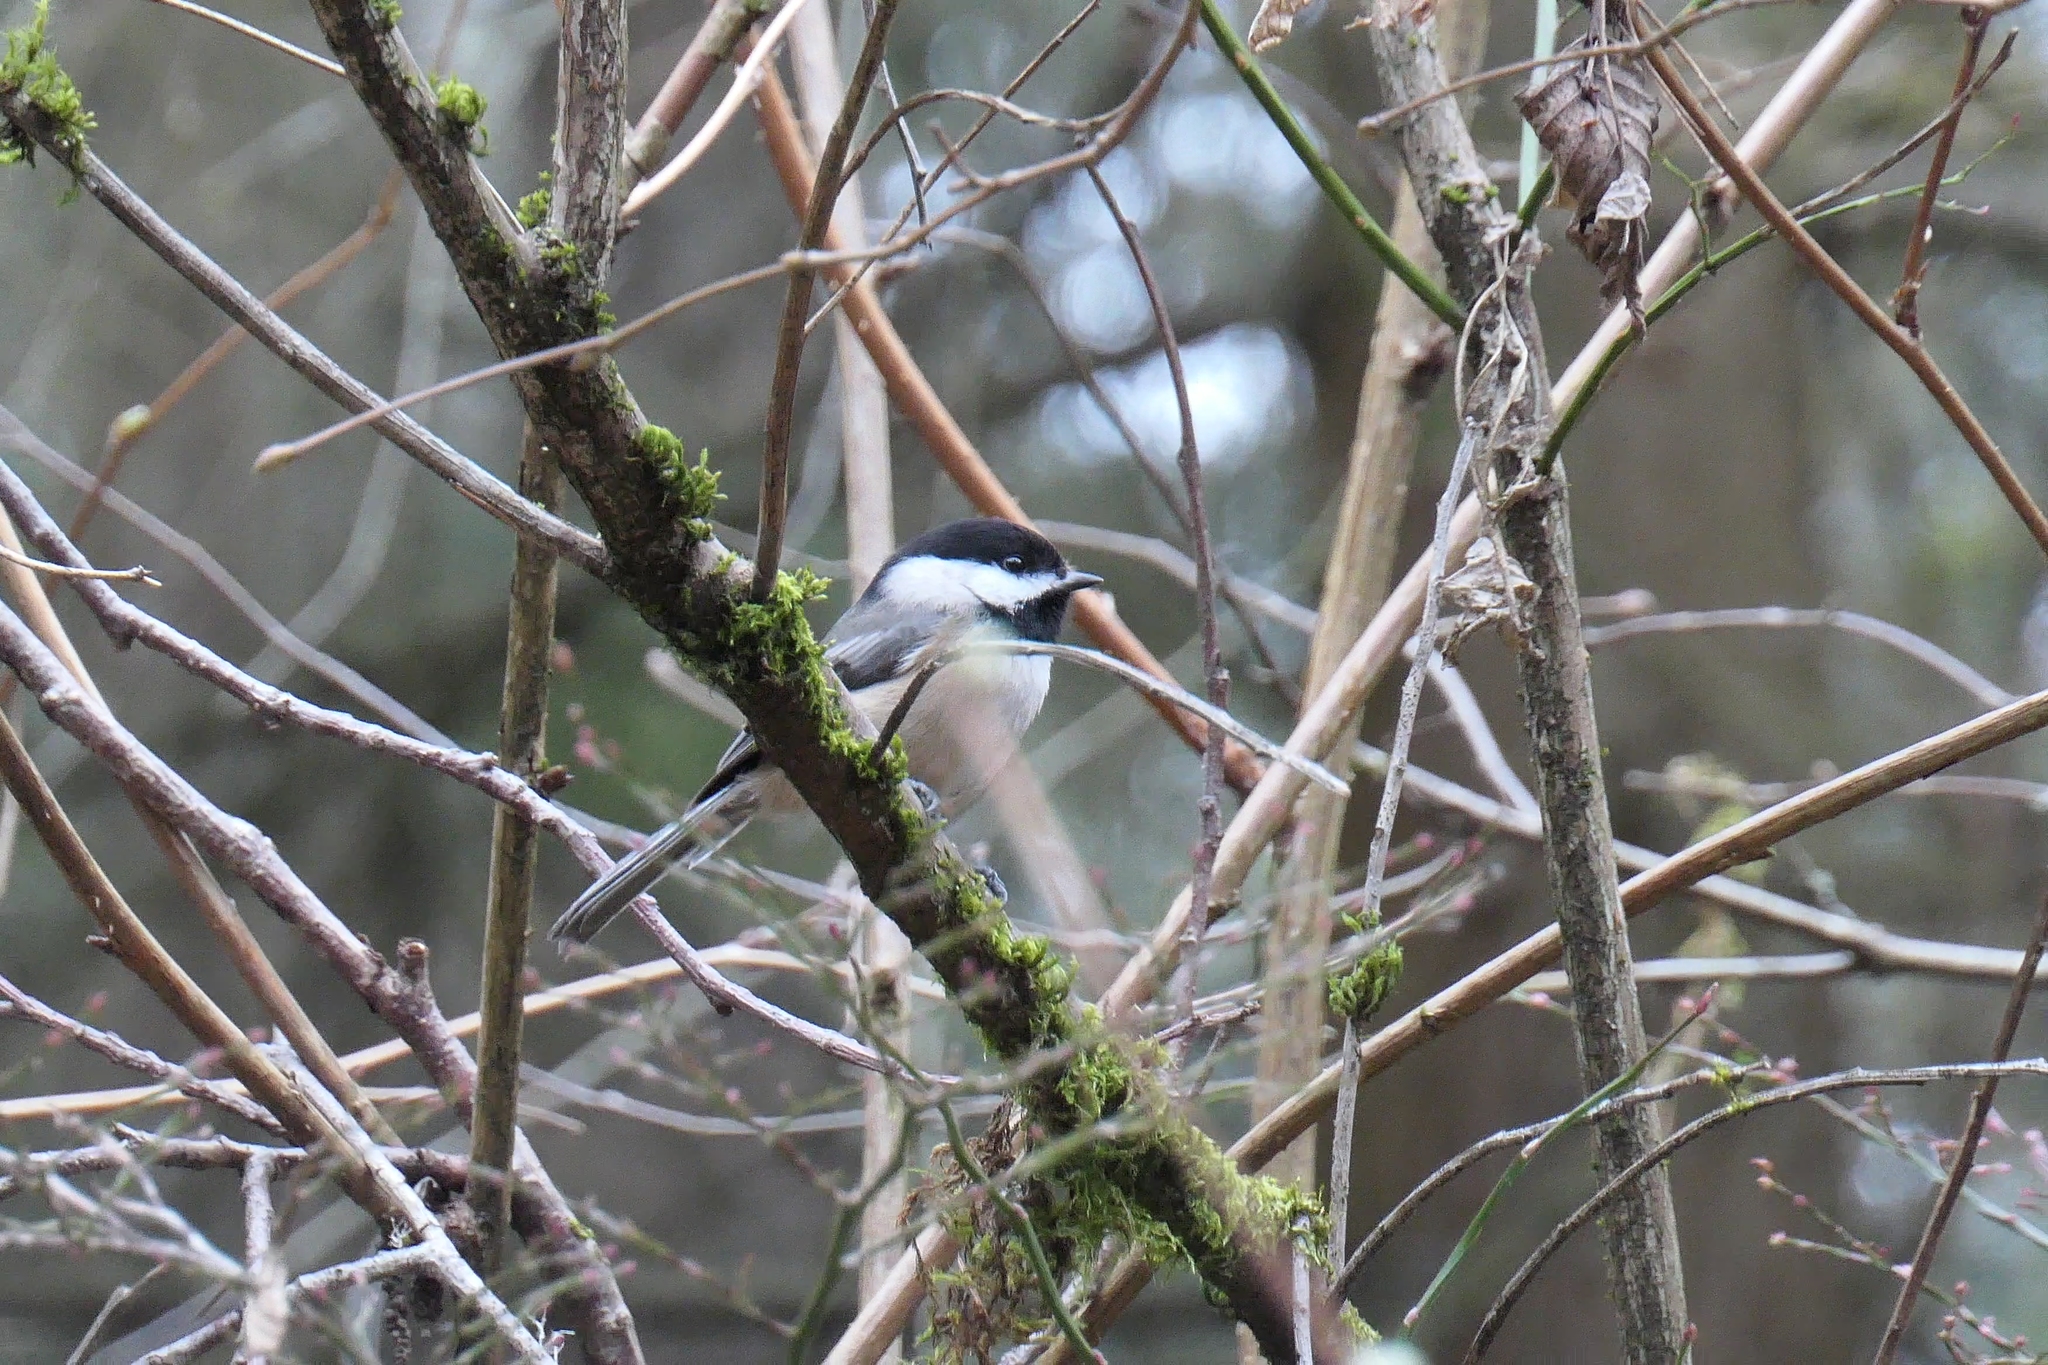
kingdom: Animalia
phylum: Chordata
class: Aves
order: Passeriformes
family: Paridae
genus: Poecile
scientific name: Poecile atricapillus
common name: Black-capped chickadee
